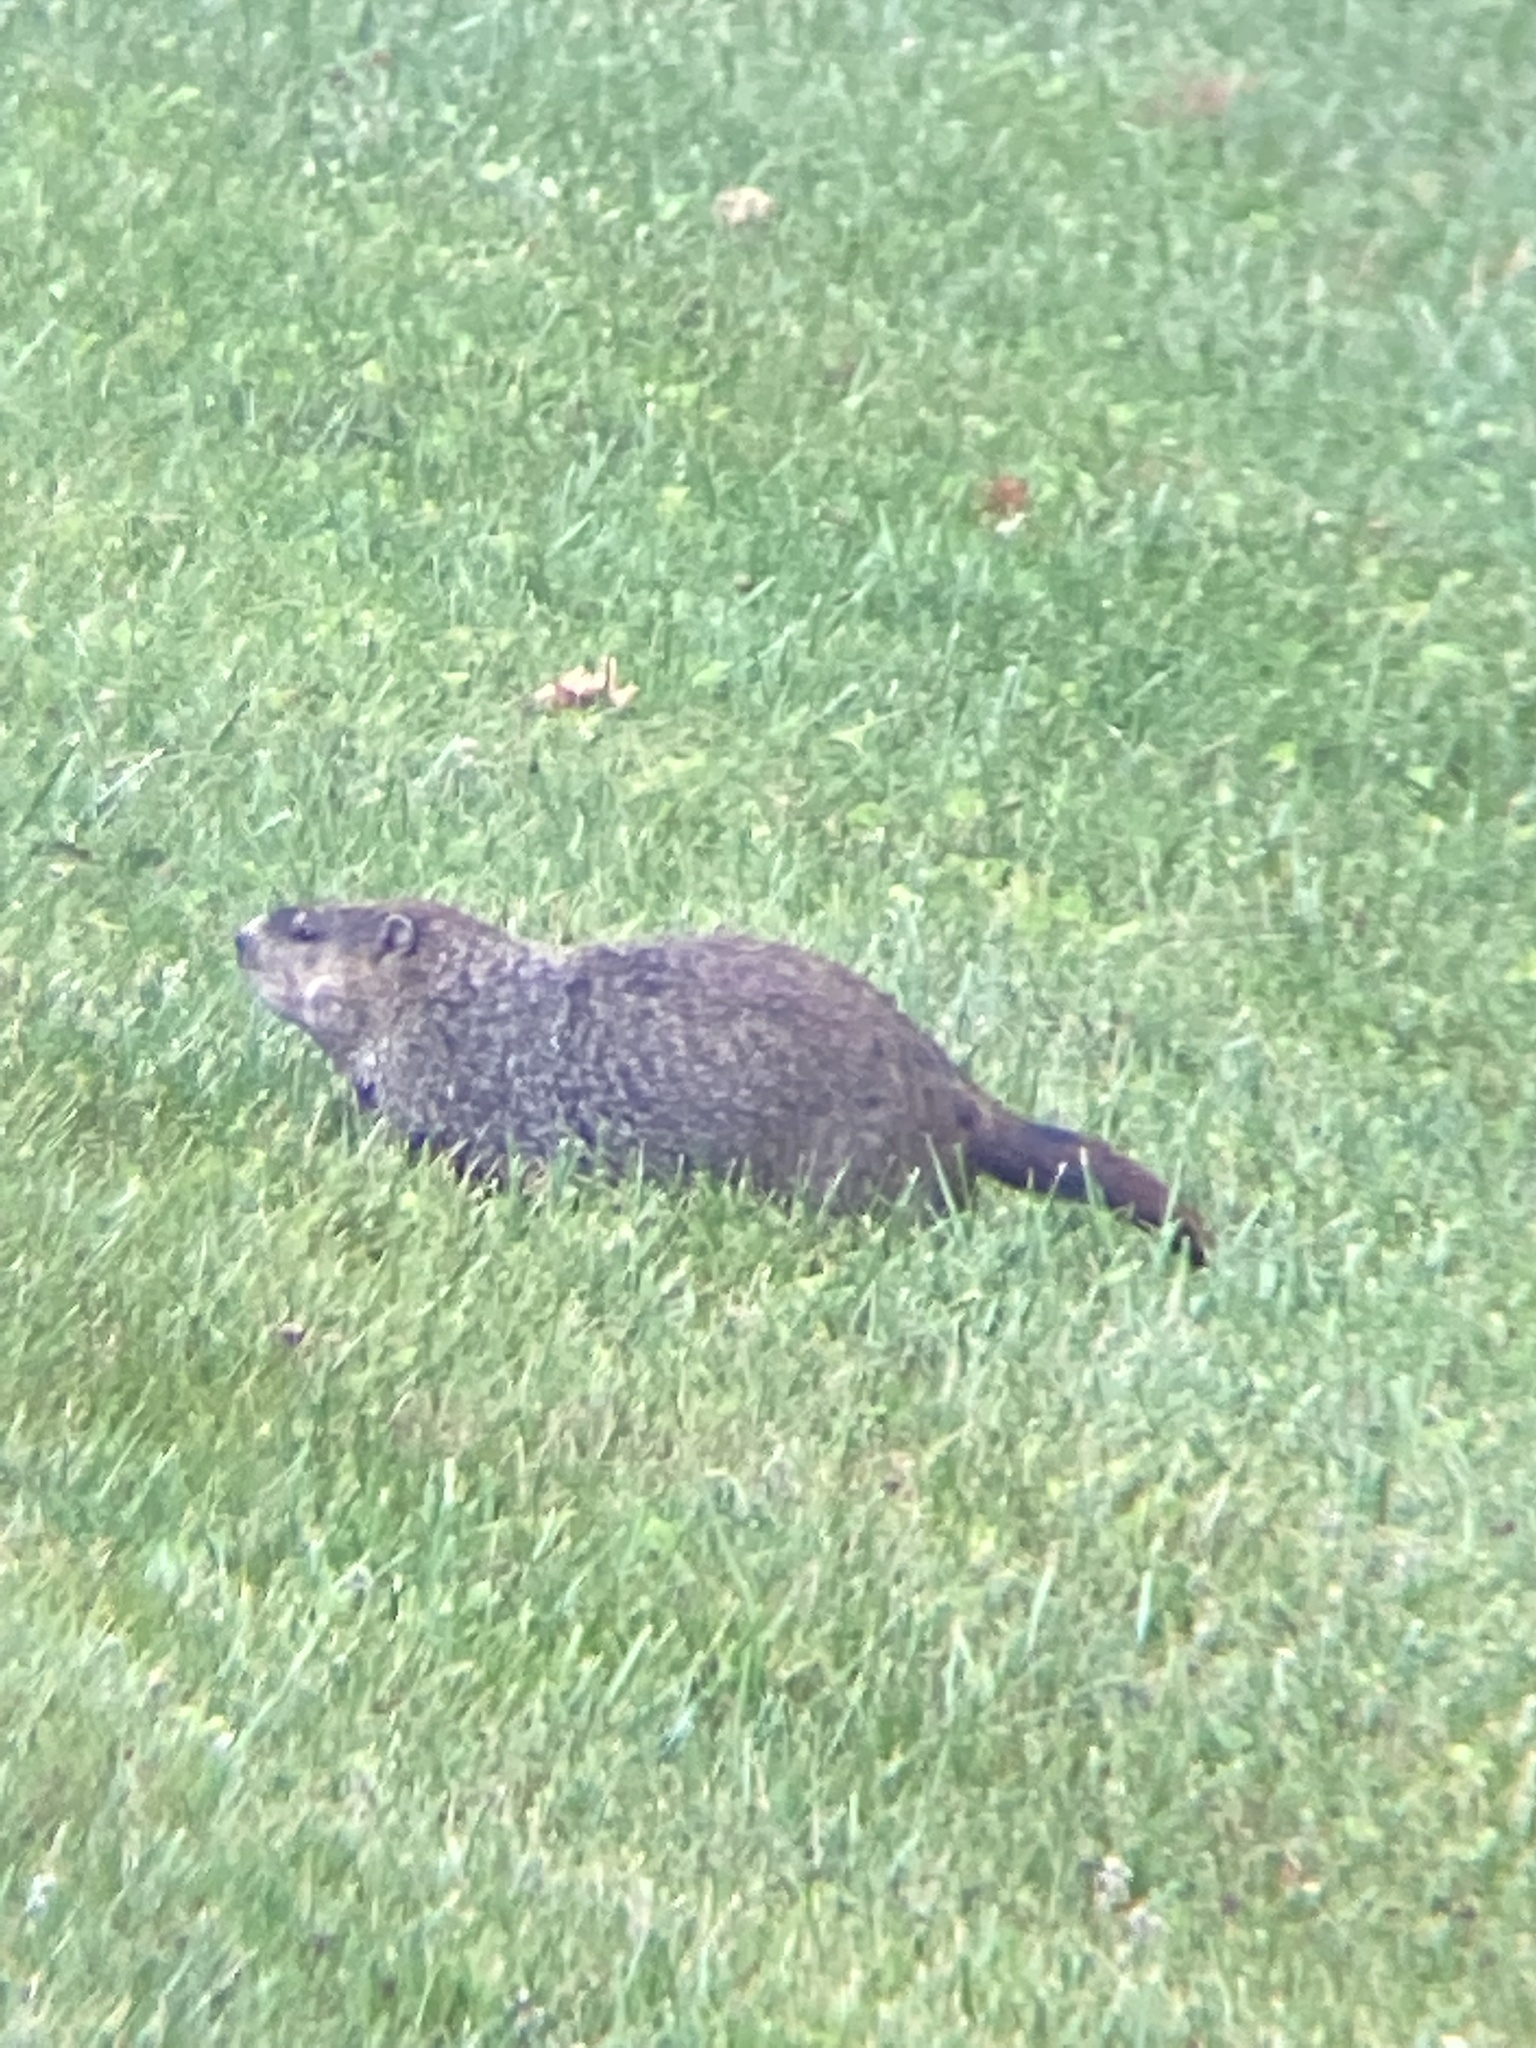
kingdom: Animalia
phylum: Chordata
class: Mammalia
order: Rodentia
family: Sciuridae
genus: Marmota
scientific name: Marmota monax
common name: Groundhog
